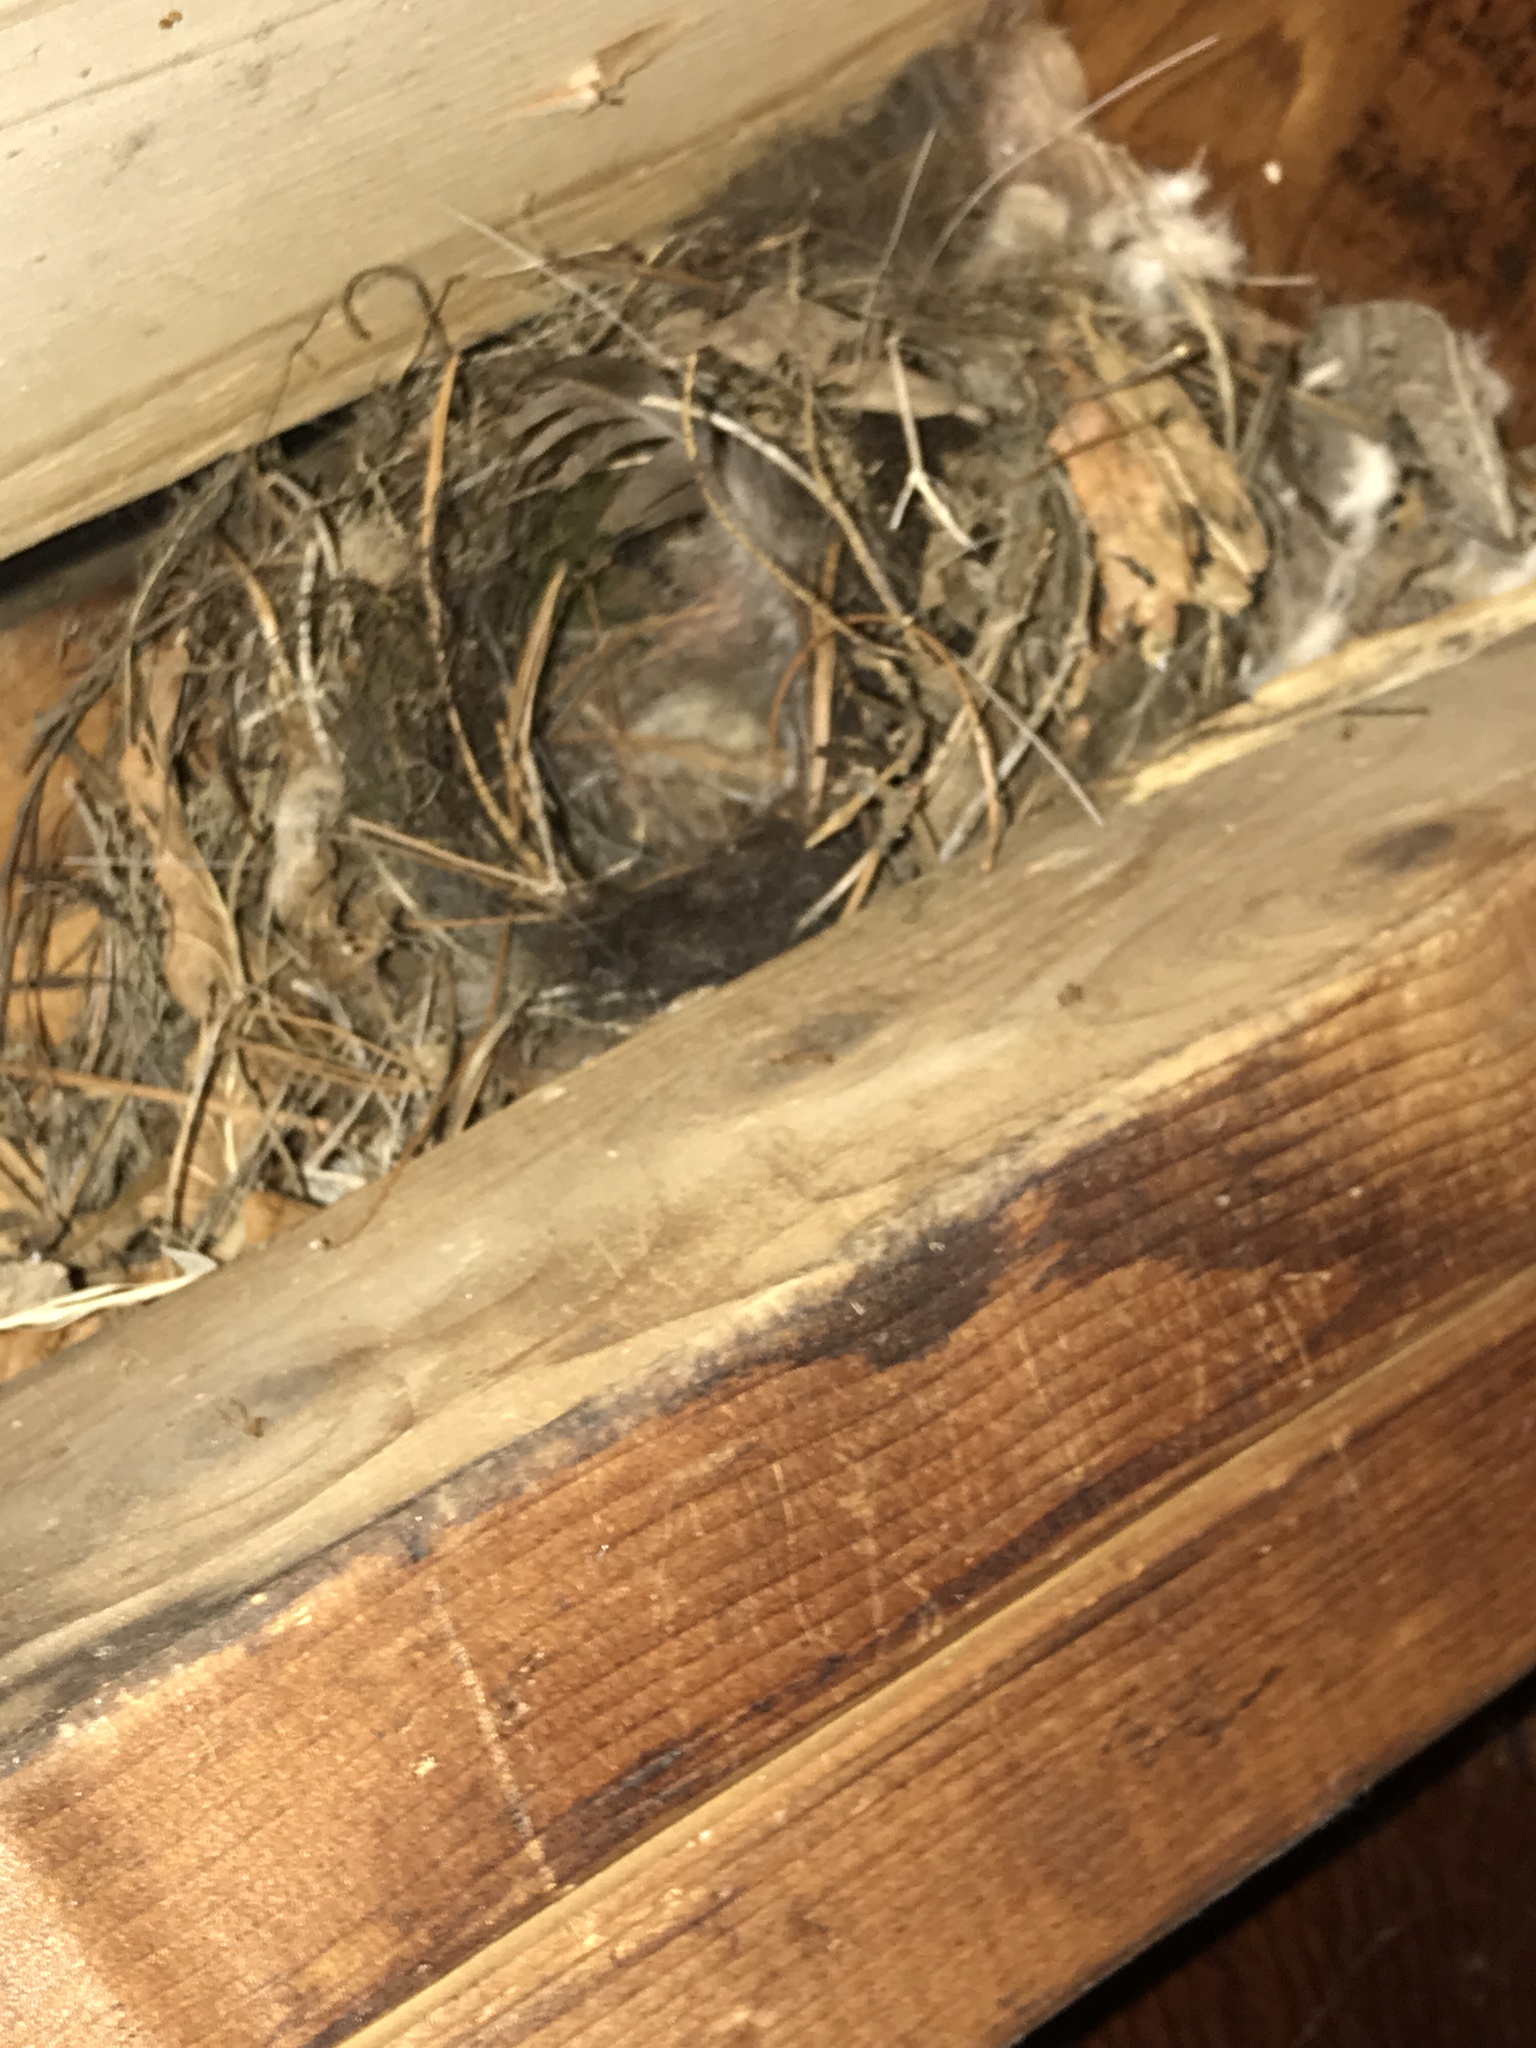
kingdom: Animalia
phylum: Chordata
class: Aves
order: Passeriformes
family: Troglodytidae
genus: Thryothorus
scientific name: Thryothorus ludovicianus
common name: Carolina wren
